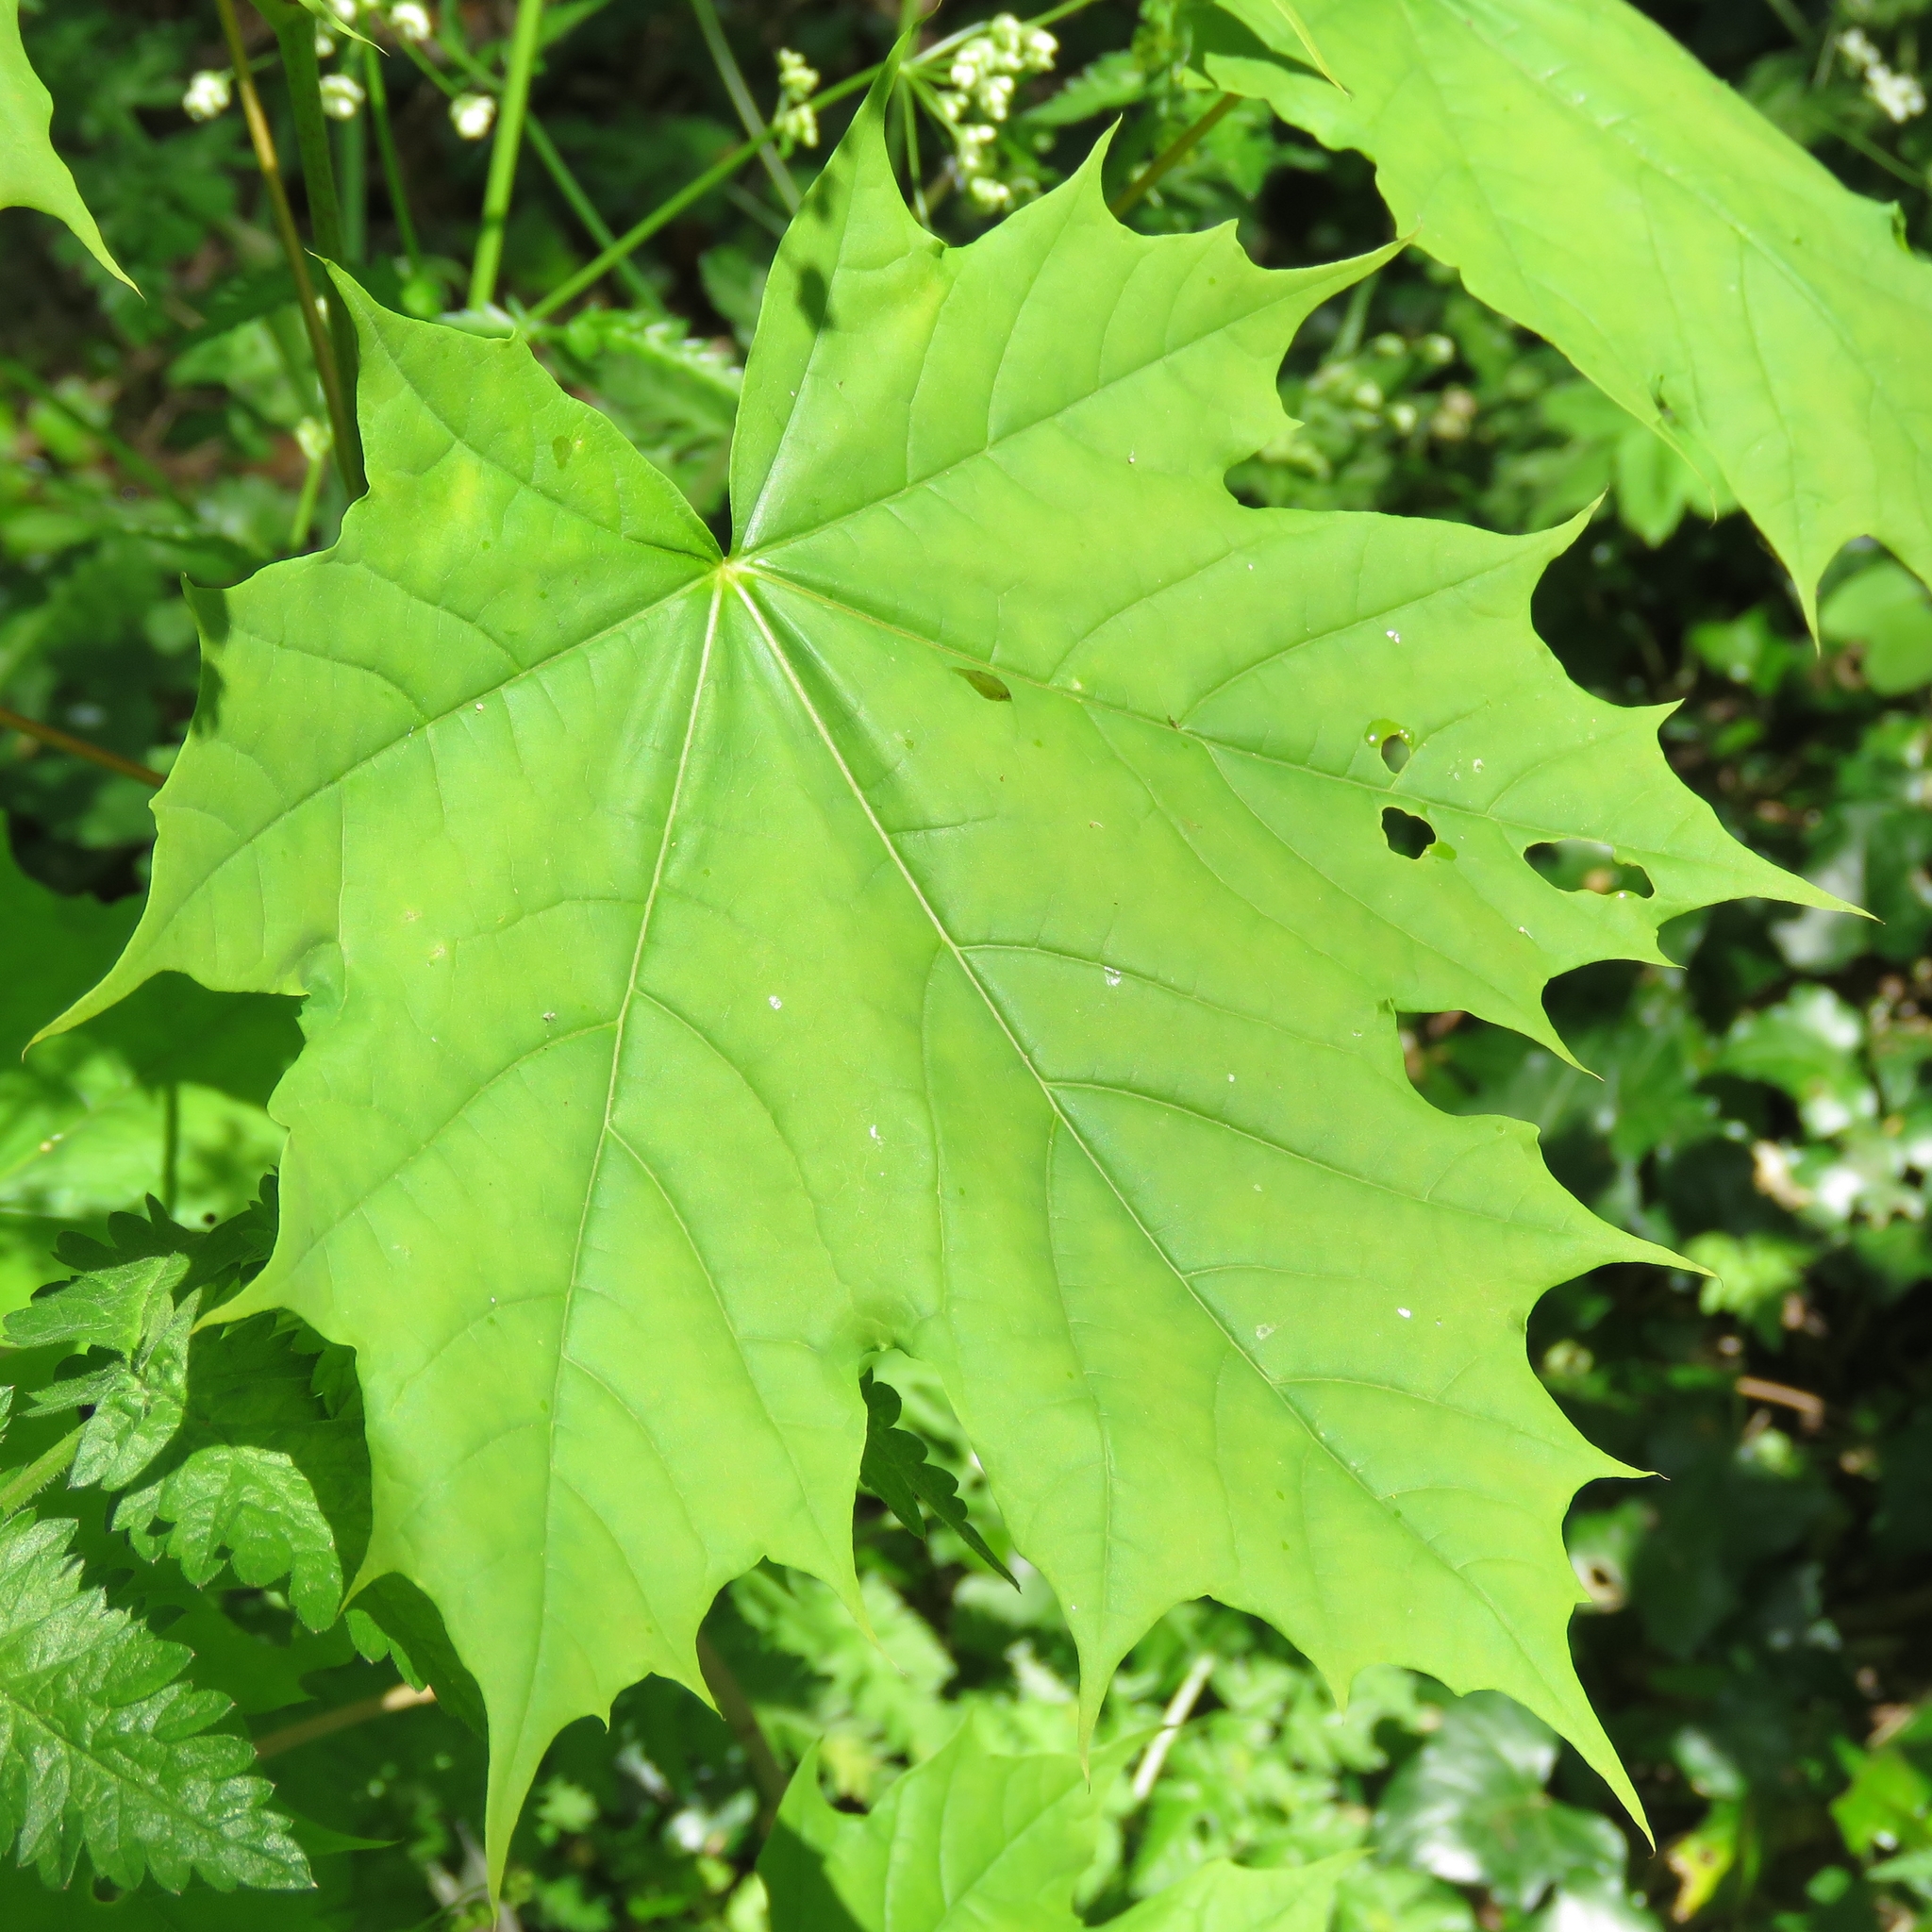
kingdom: Plantae
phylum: Tracheophyta
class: Magnoliopsida
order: Sapindales
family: Sapindaceae
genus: Acer
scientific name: Acer platanoides
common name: Norway maple
